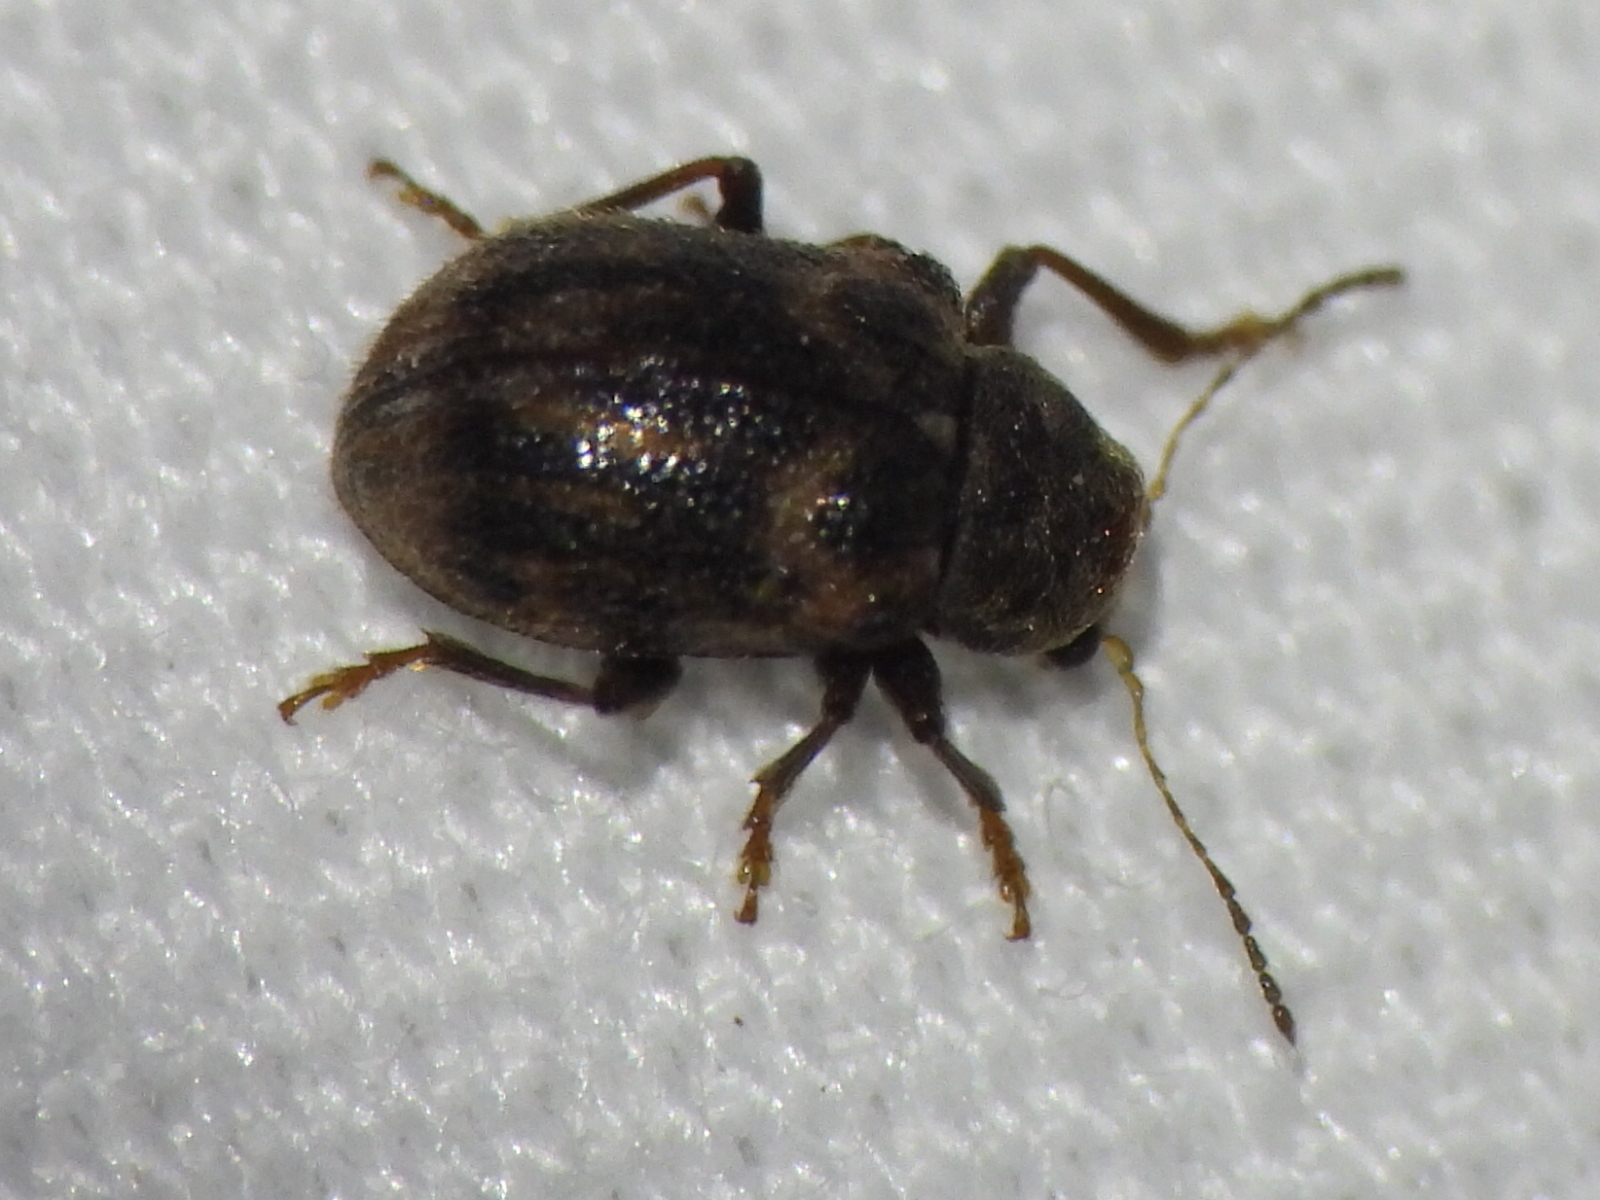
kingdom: Animalia
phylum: Arthropoda
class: Insecta
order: Coleoptera
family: Chrysomelidae
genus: Xanthonia
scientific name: Xanthonia picturata
